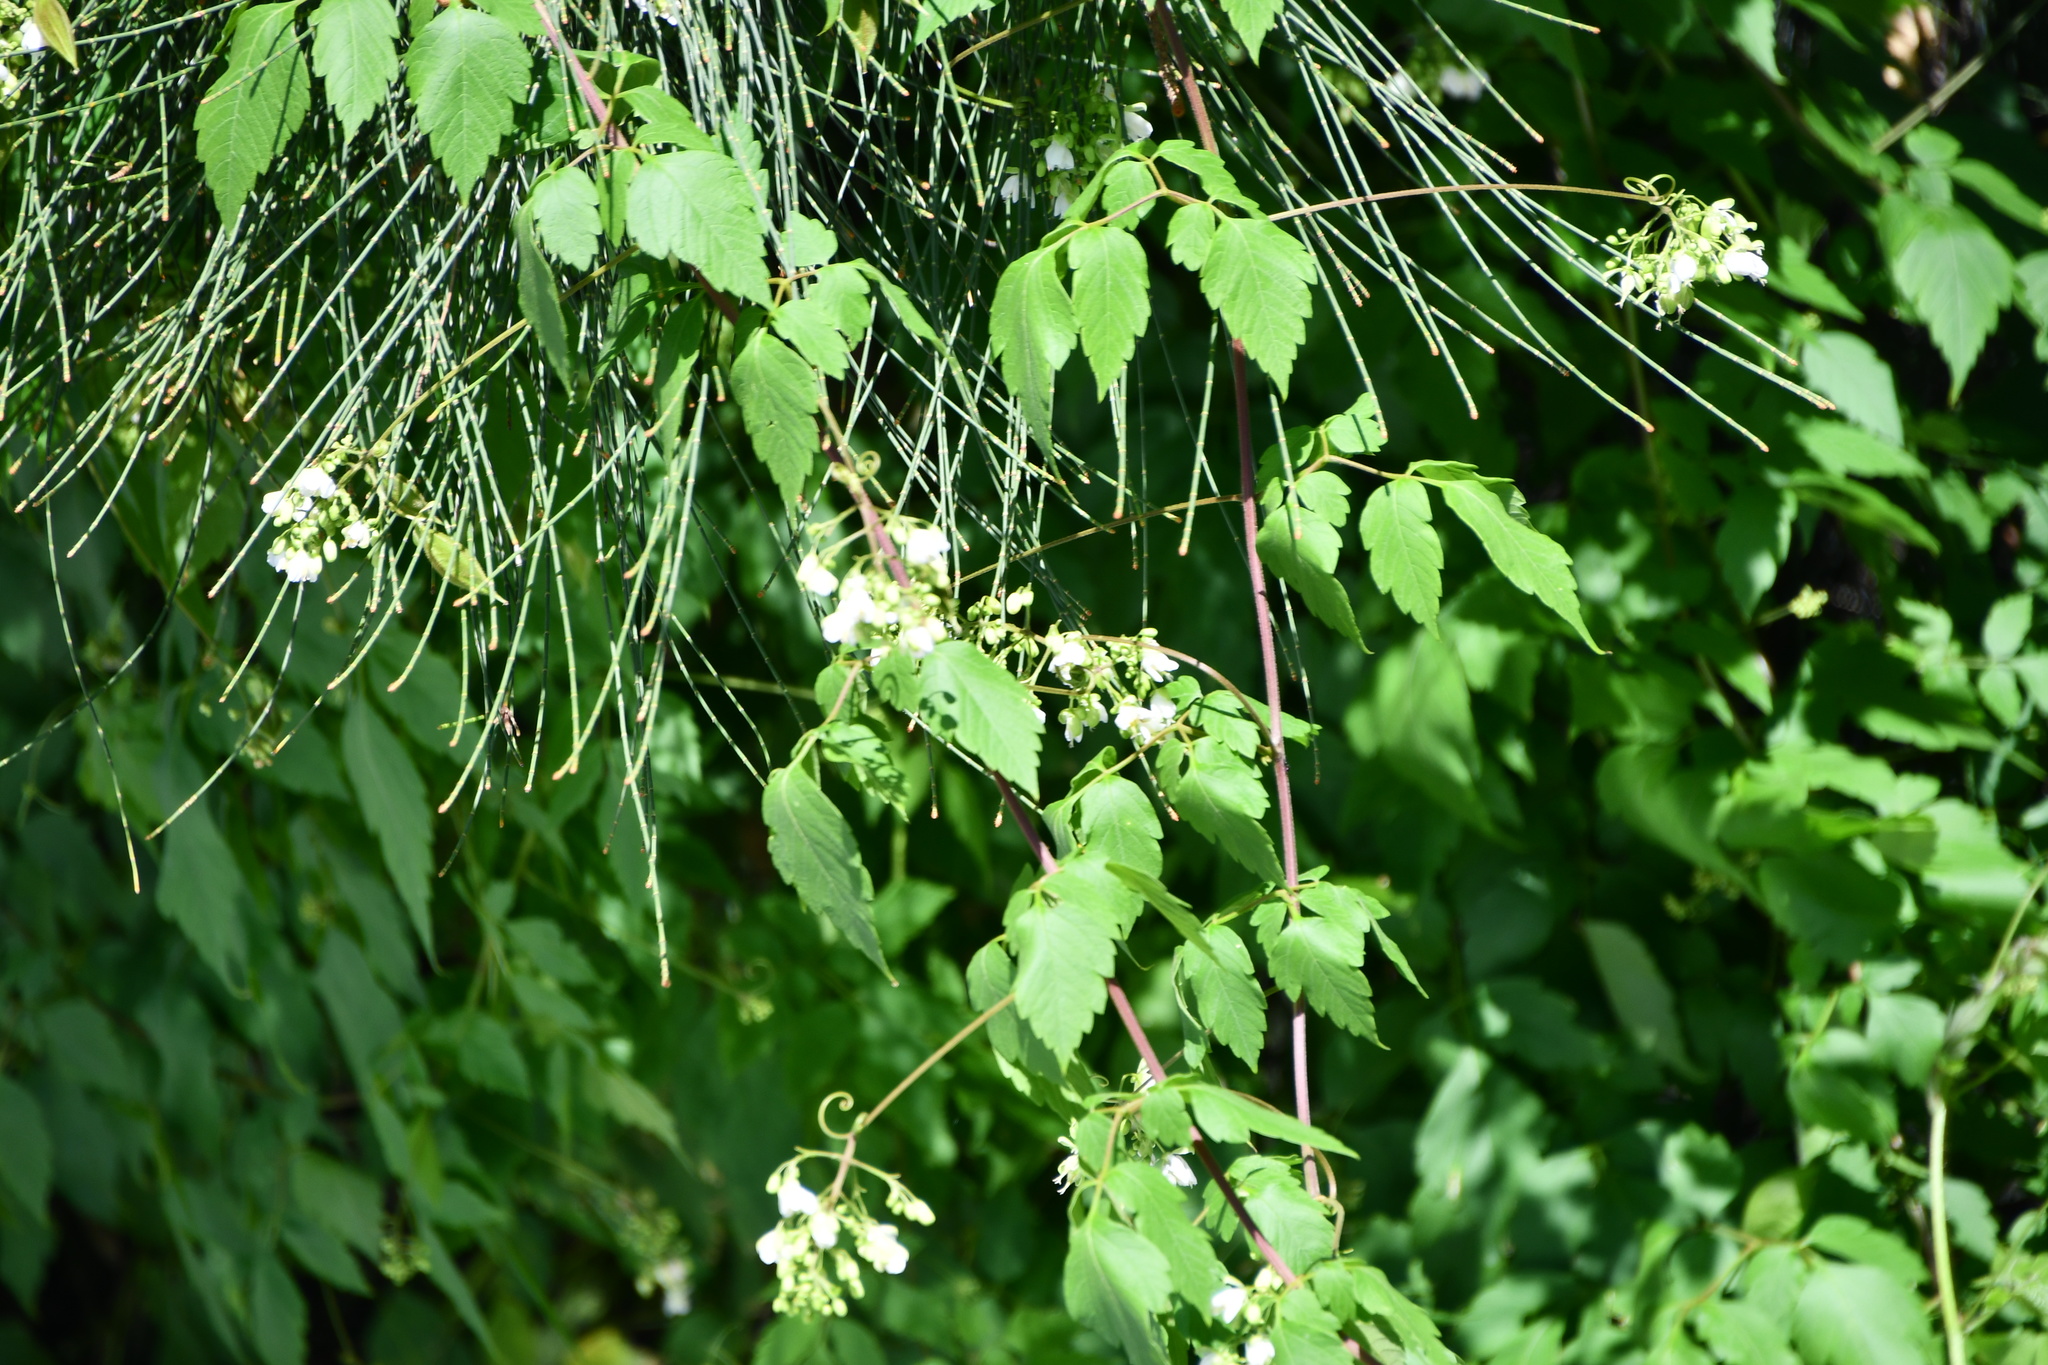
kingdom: Plantae
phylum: Tracheophyta
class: Magnoliopsida
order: Sapindales
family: Sapindaceae
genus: Cardiospermum
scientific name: Cardiospermum grandiflorum
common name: Balloon vine
